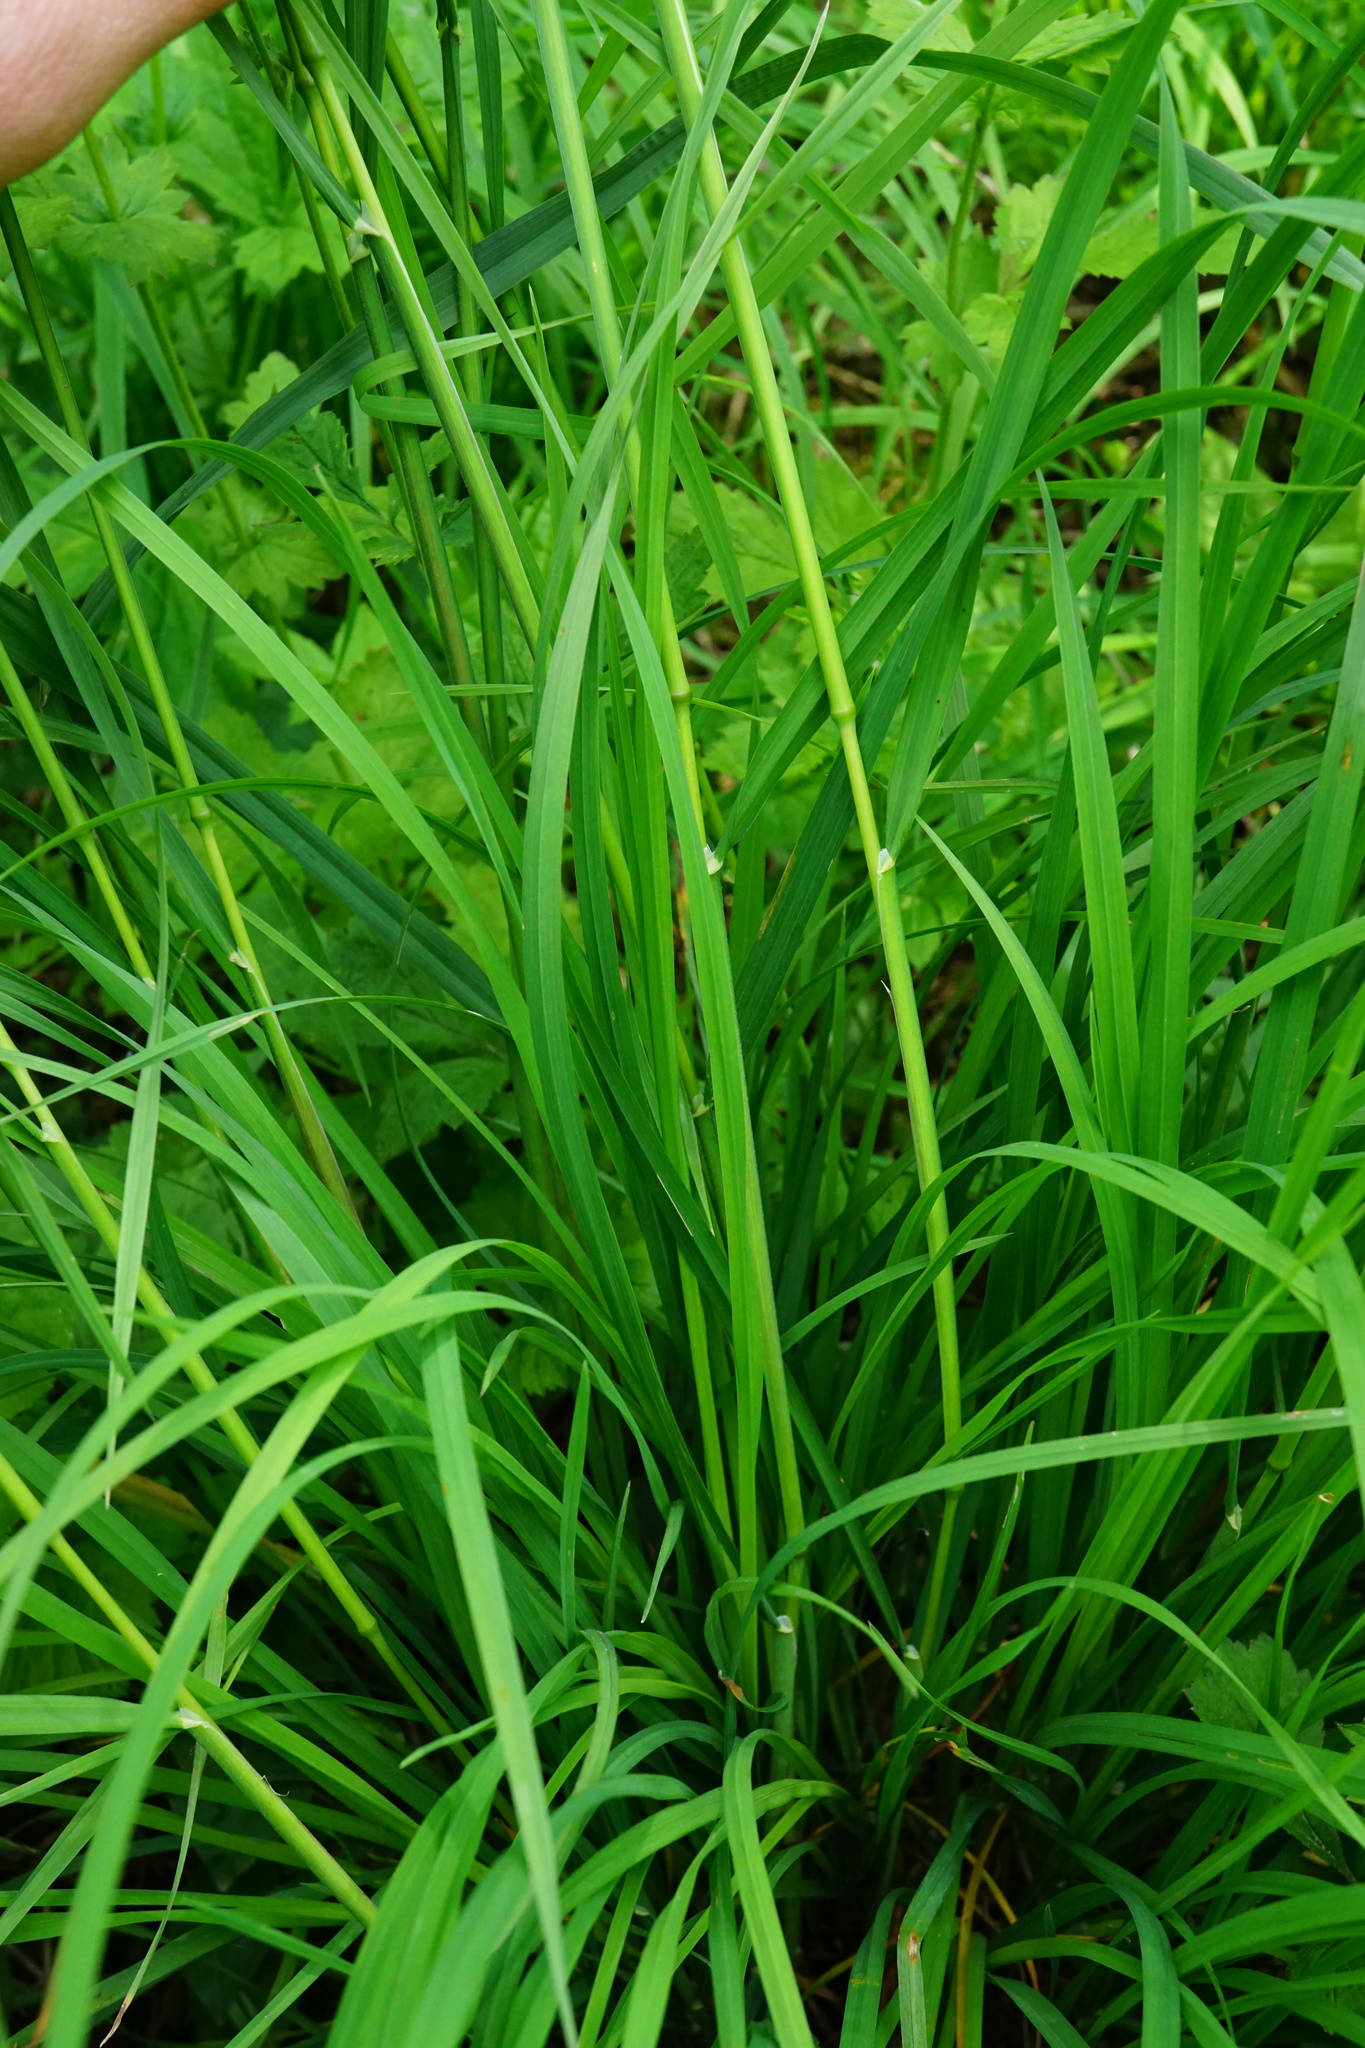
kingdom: Plantae
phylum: Tracheophyta
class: Liliopsida
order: Poales
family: Poaceae
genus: Dactylis
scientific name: Dactylis glomerata
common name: Orchardgrass
